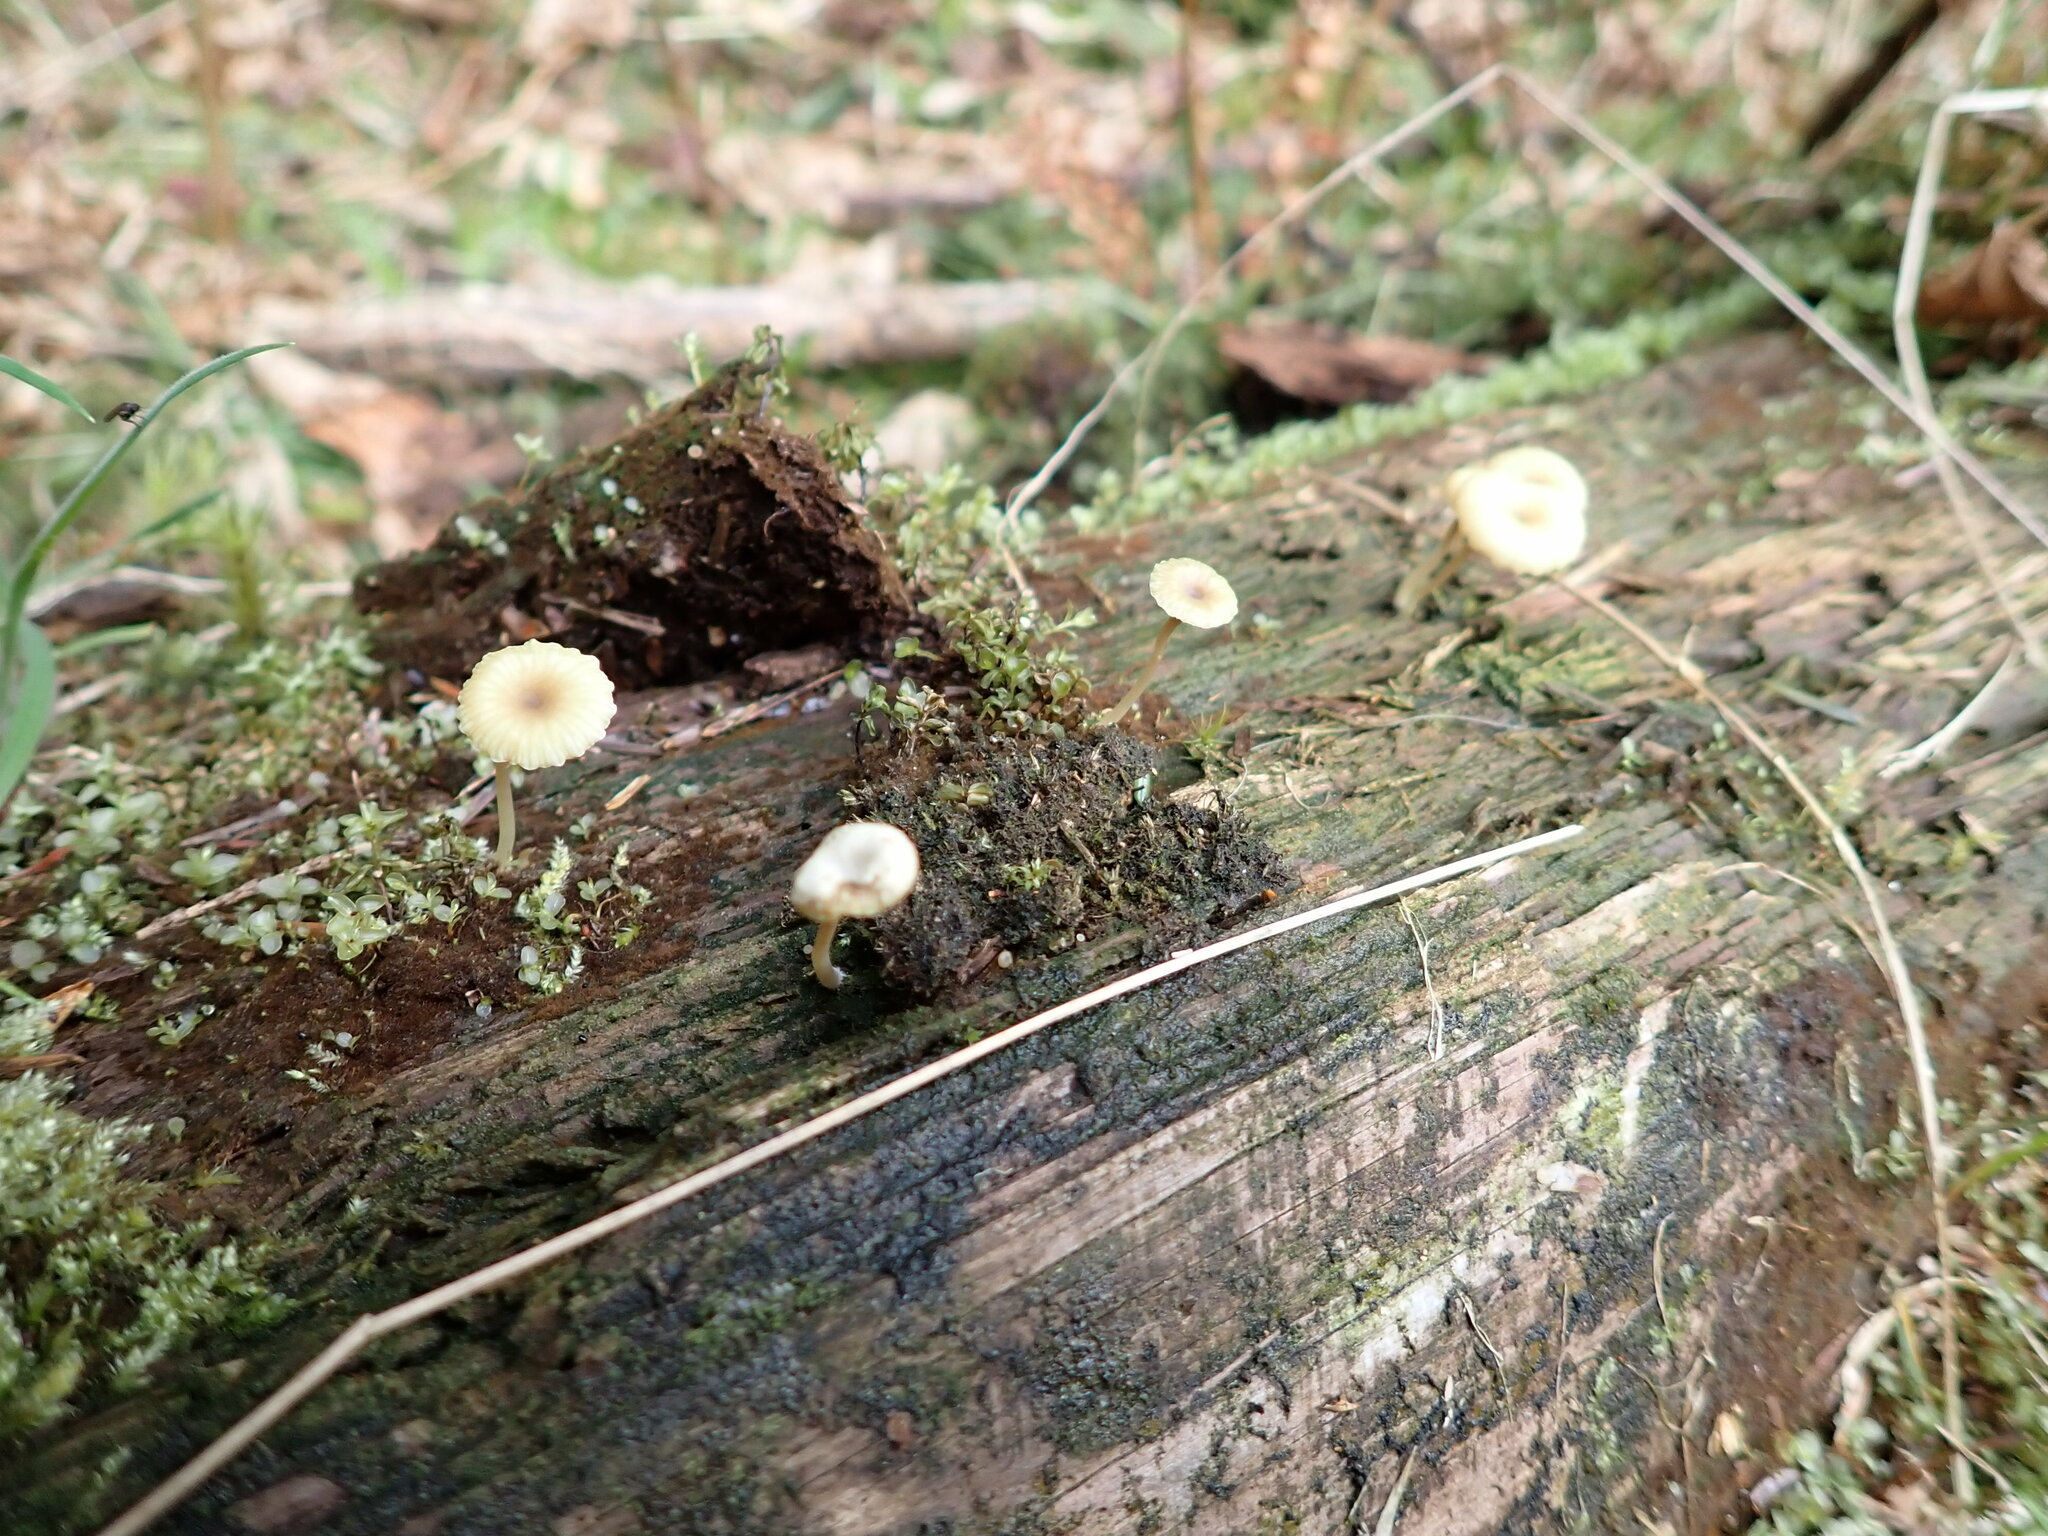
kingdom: Fungi
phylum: Basidiomycota
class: Agaricomycetes
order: Agaricales
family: Hygrophoraceae
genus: Lichenomphalia
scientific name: Lichenomphalia
